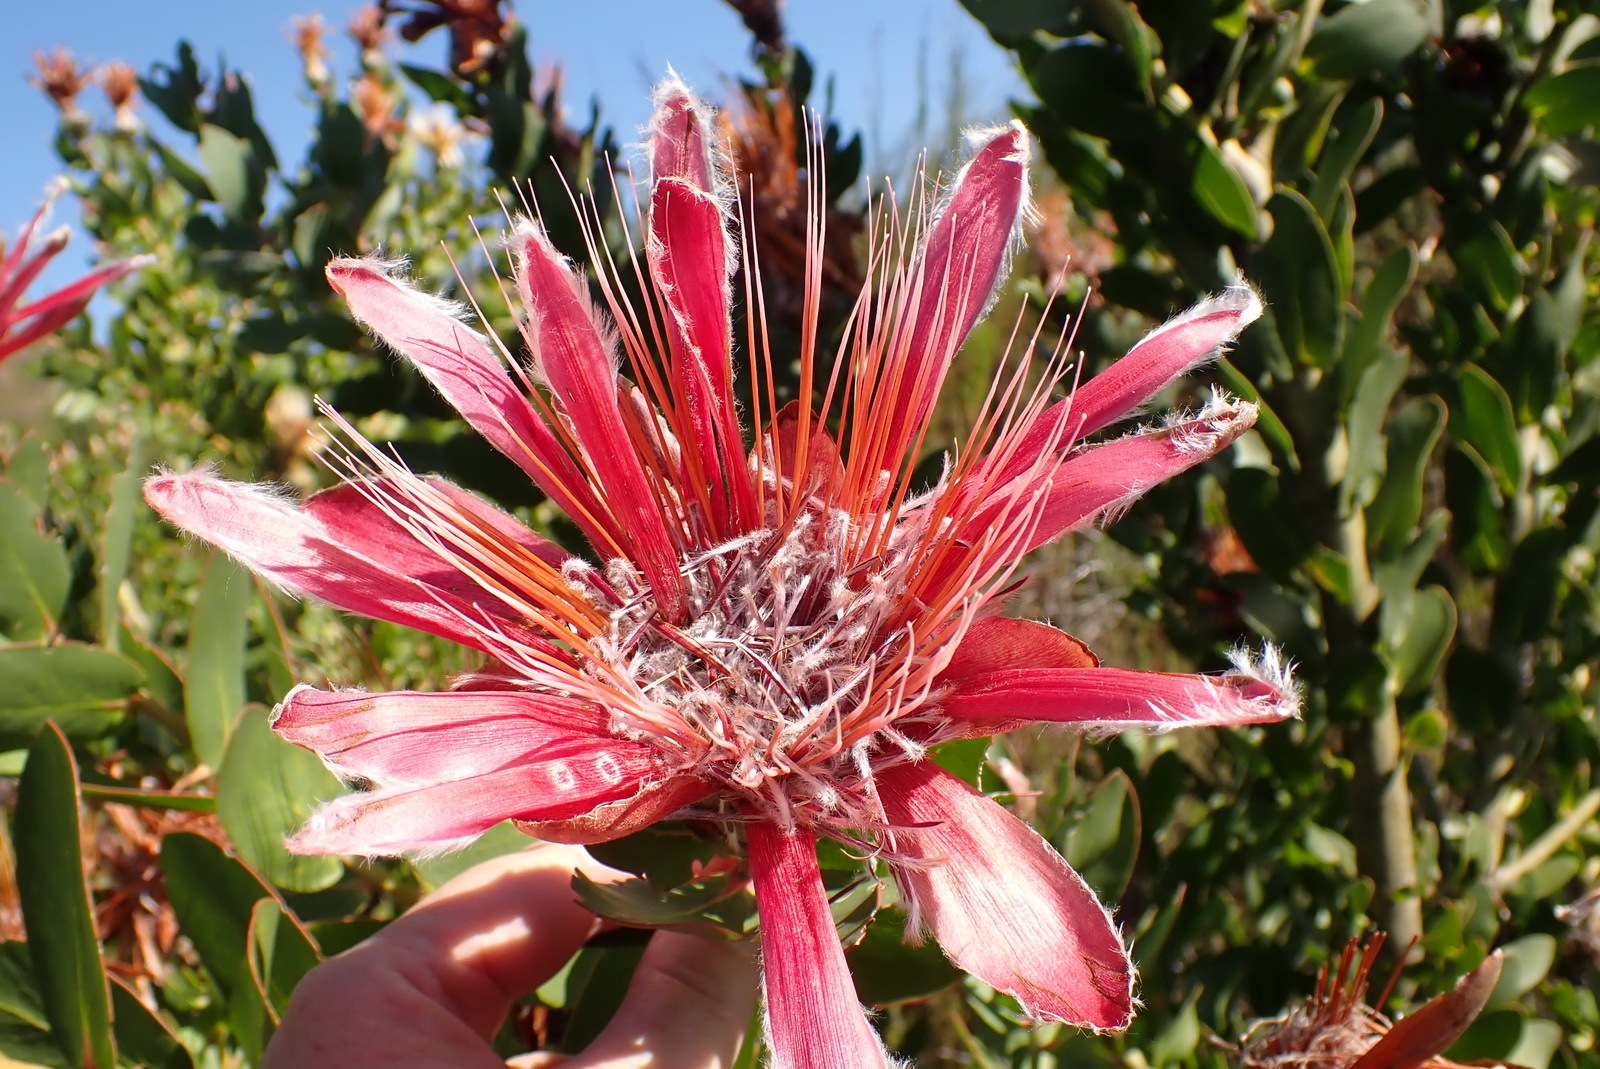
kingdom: Plantae
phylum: Tracheophyta
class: Magnoliopsida
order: Proteales
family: Proteaceae
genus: Protea
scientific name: Protea aurea
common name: Shuttlecock sugarbush
